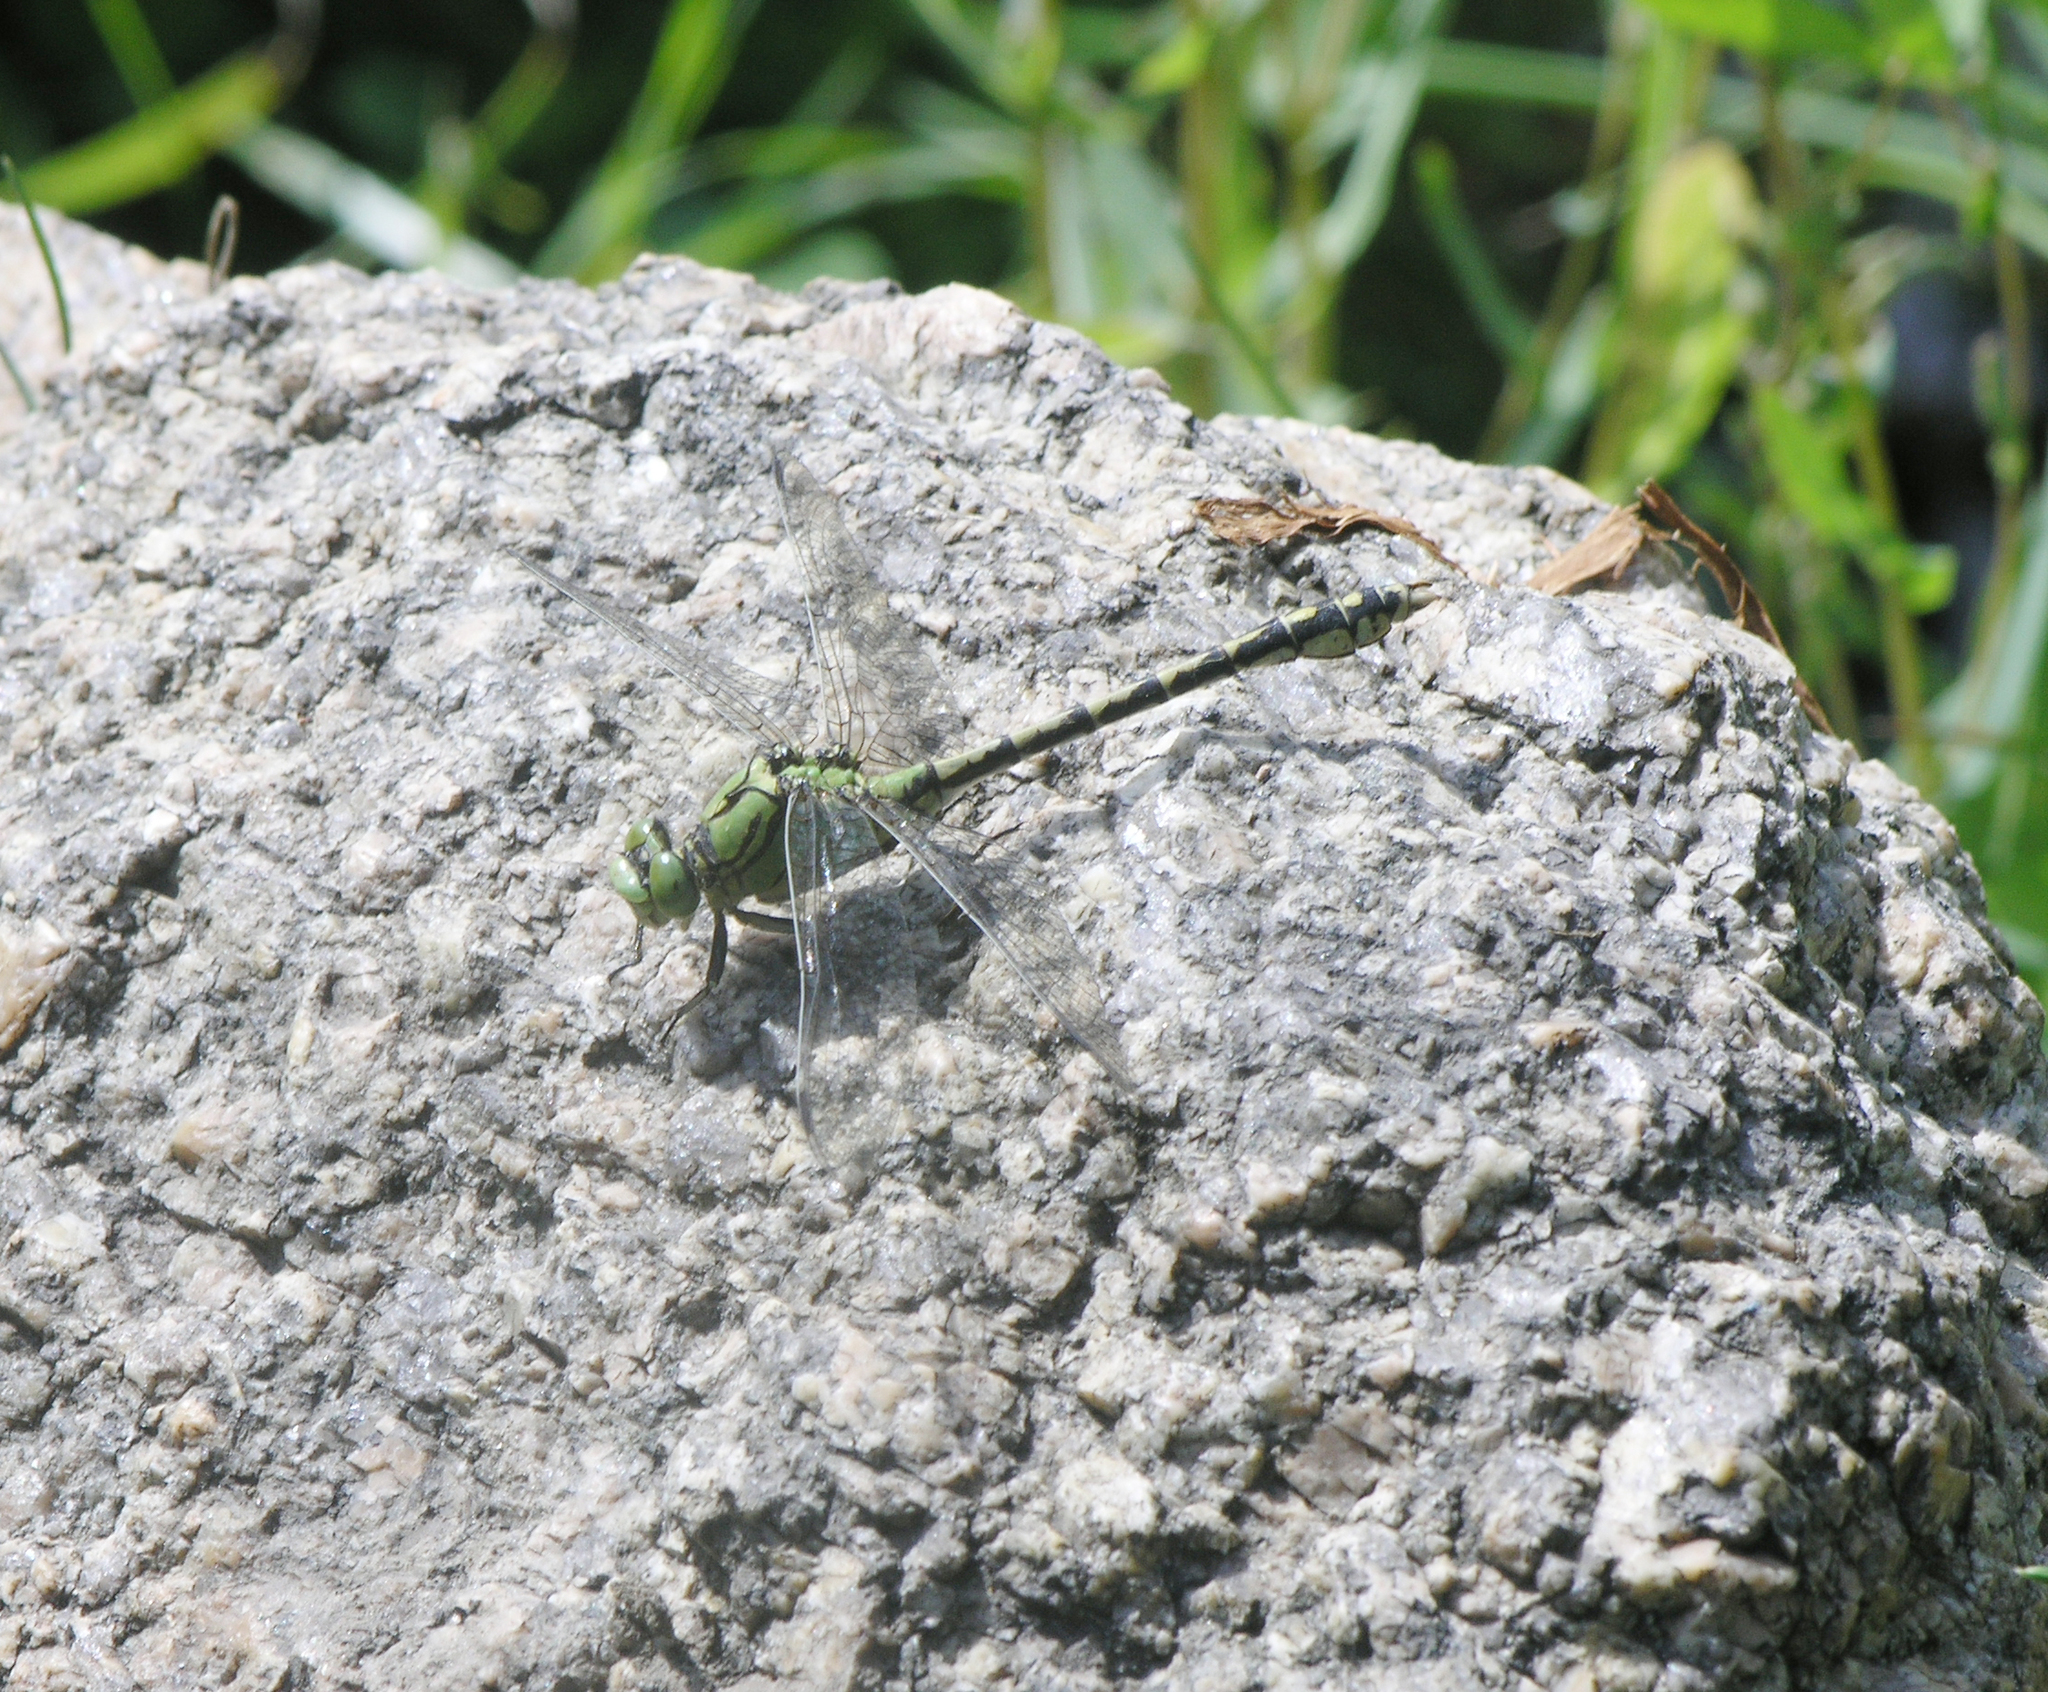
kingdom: Animalia
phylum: Arthropoda
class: Insecta
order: Odonata
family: Gomphidae
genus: Ophiogomphus
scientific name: Ophiogomphus cecilia
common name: Green snaketail
